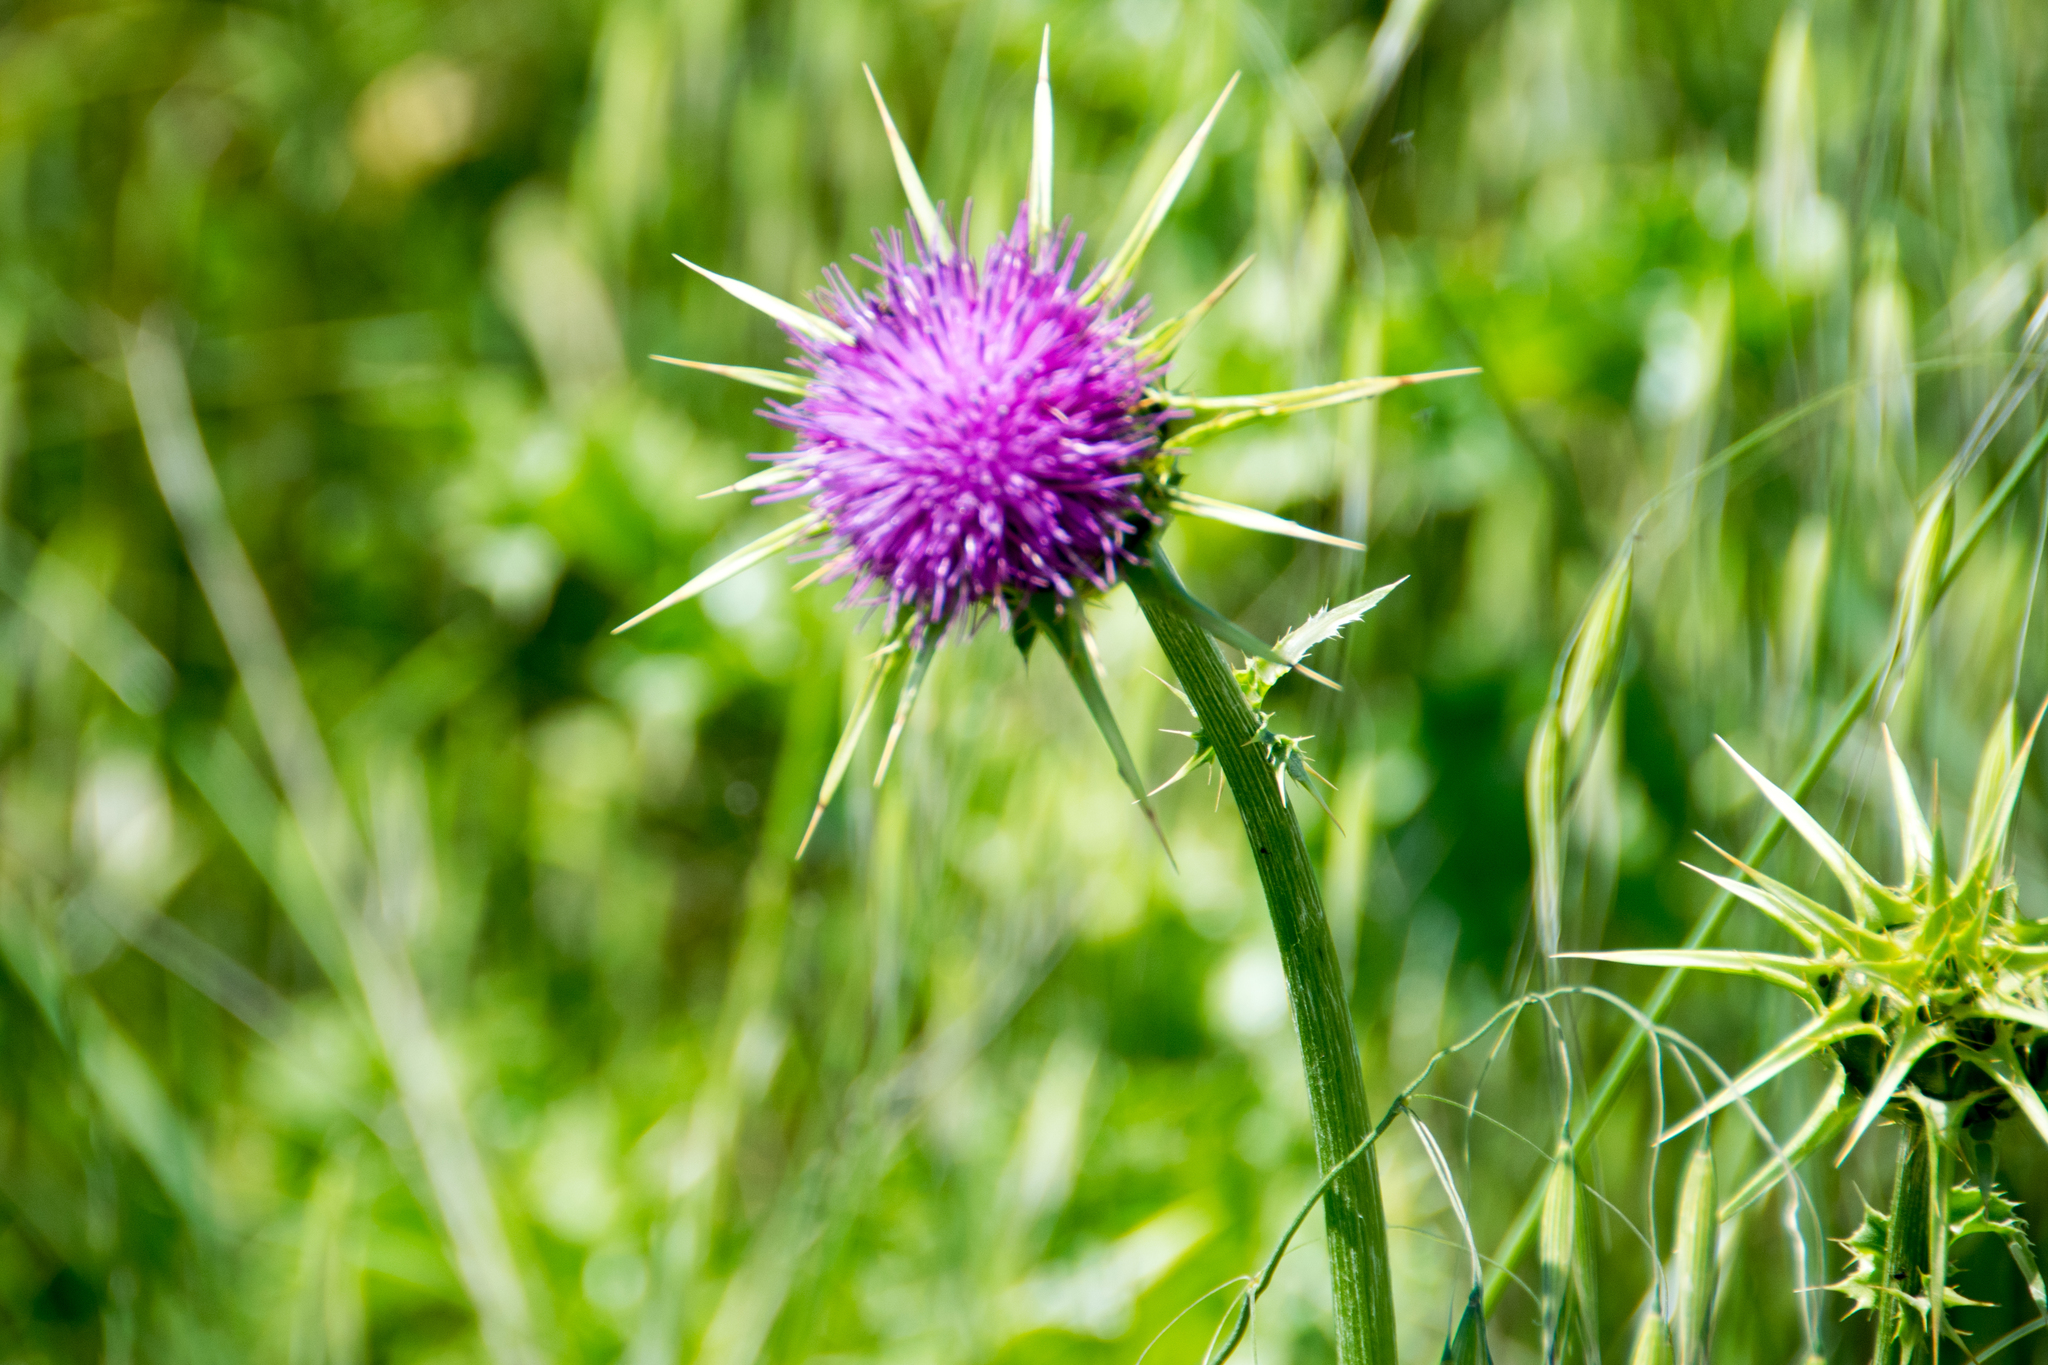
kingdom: Plantae
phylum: Tracheophyta
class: Magnoliopsida
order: Asterales
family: Asteraceae
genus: Silybum
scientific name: Silybum marianum
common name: Milk thistle
